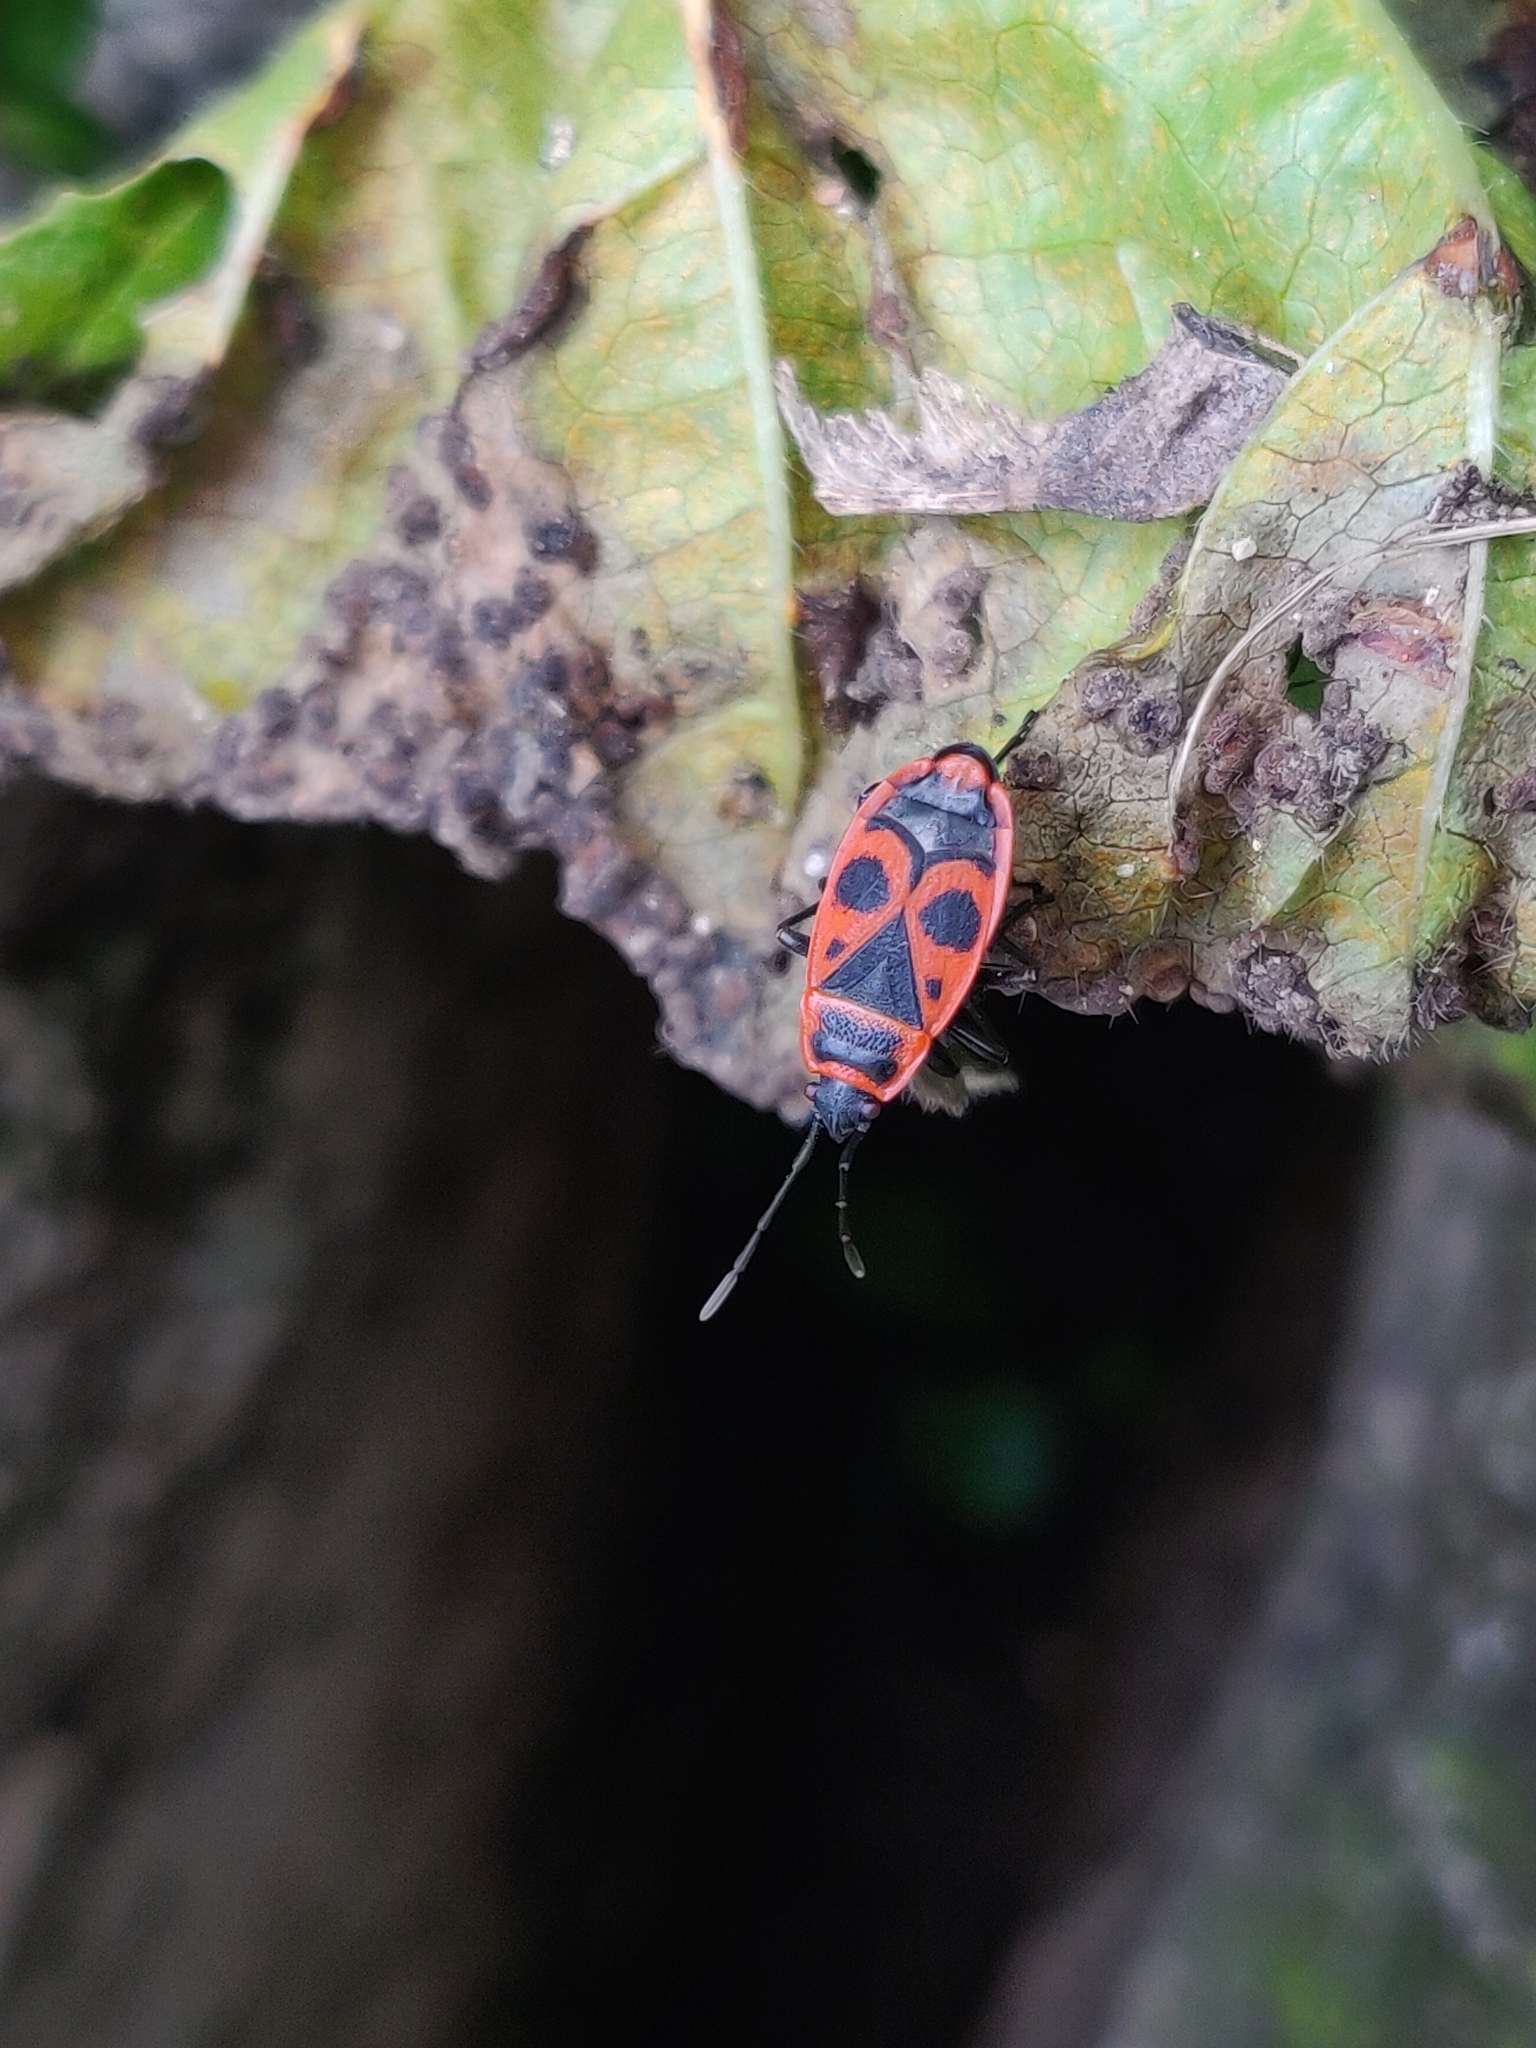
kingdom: Animalia
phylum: Arthropoda
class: Insecta
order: Hemiptera
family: Pyrrhocoridae
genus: Pyrrhocoris
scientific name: Pyrrhocoris apterus
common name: Firebug
